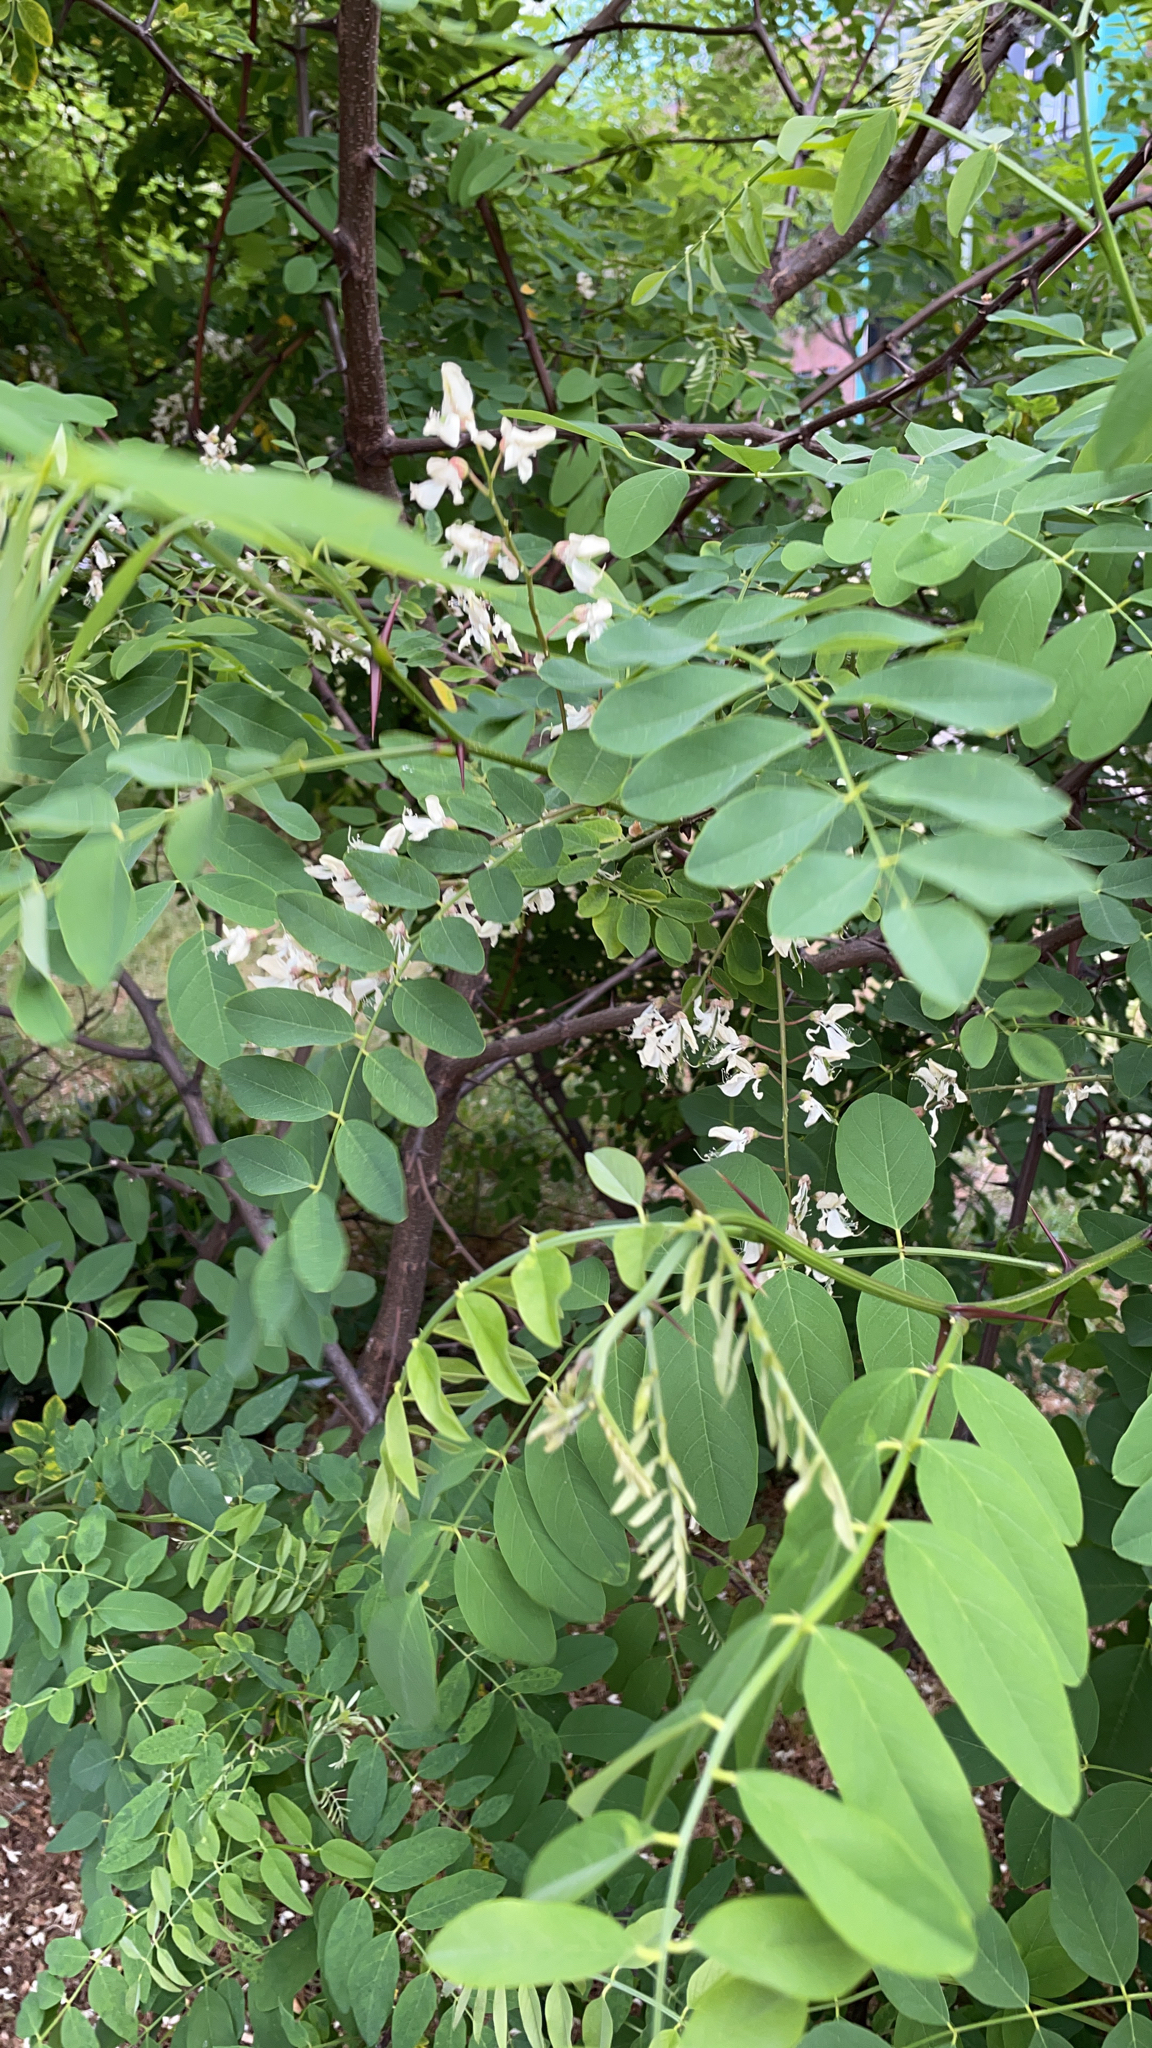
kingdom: Plantae
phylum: Tracheophyta
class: Magnoliopsida
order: Fabales
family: Fabaceae
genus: Robinia
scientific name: Robinia pseudoacacia
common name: Black locust
